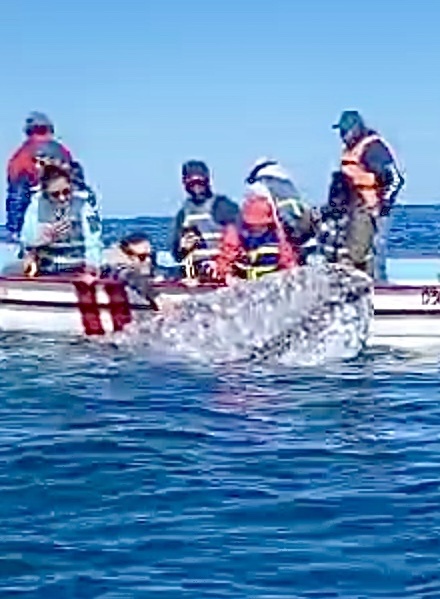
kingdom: Animalia
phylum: Chordata
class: Mammalia
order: Cetacea
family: Eschrichtiidae
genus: Eschrichtius
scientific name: Eschrichtius robustus
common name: Gray whale
